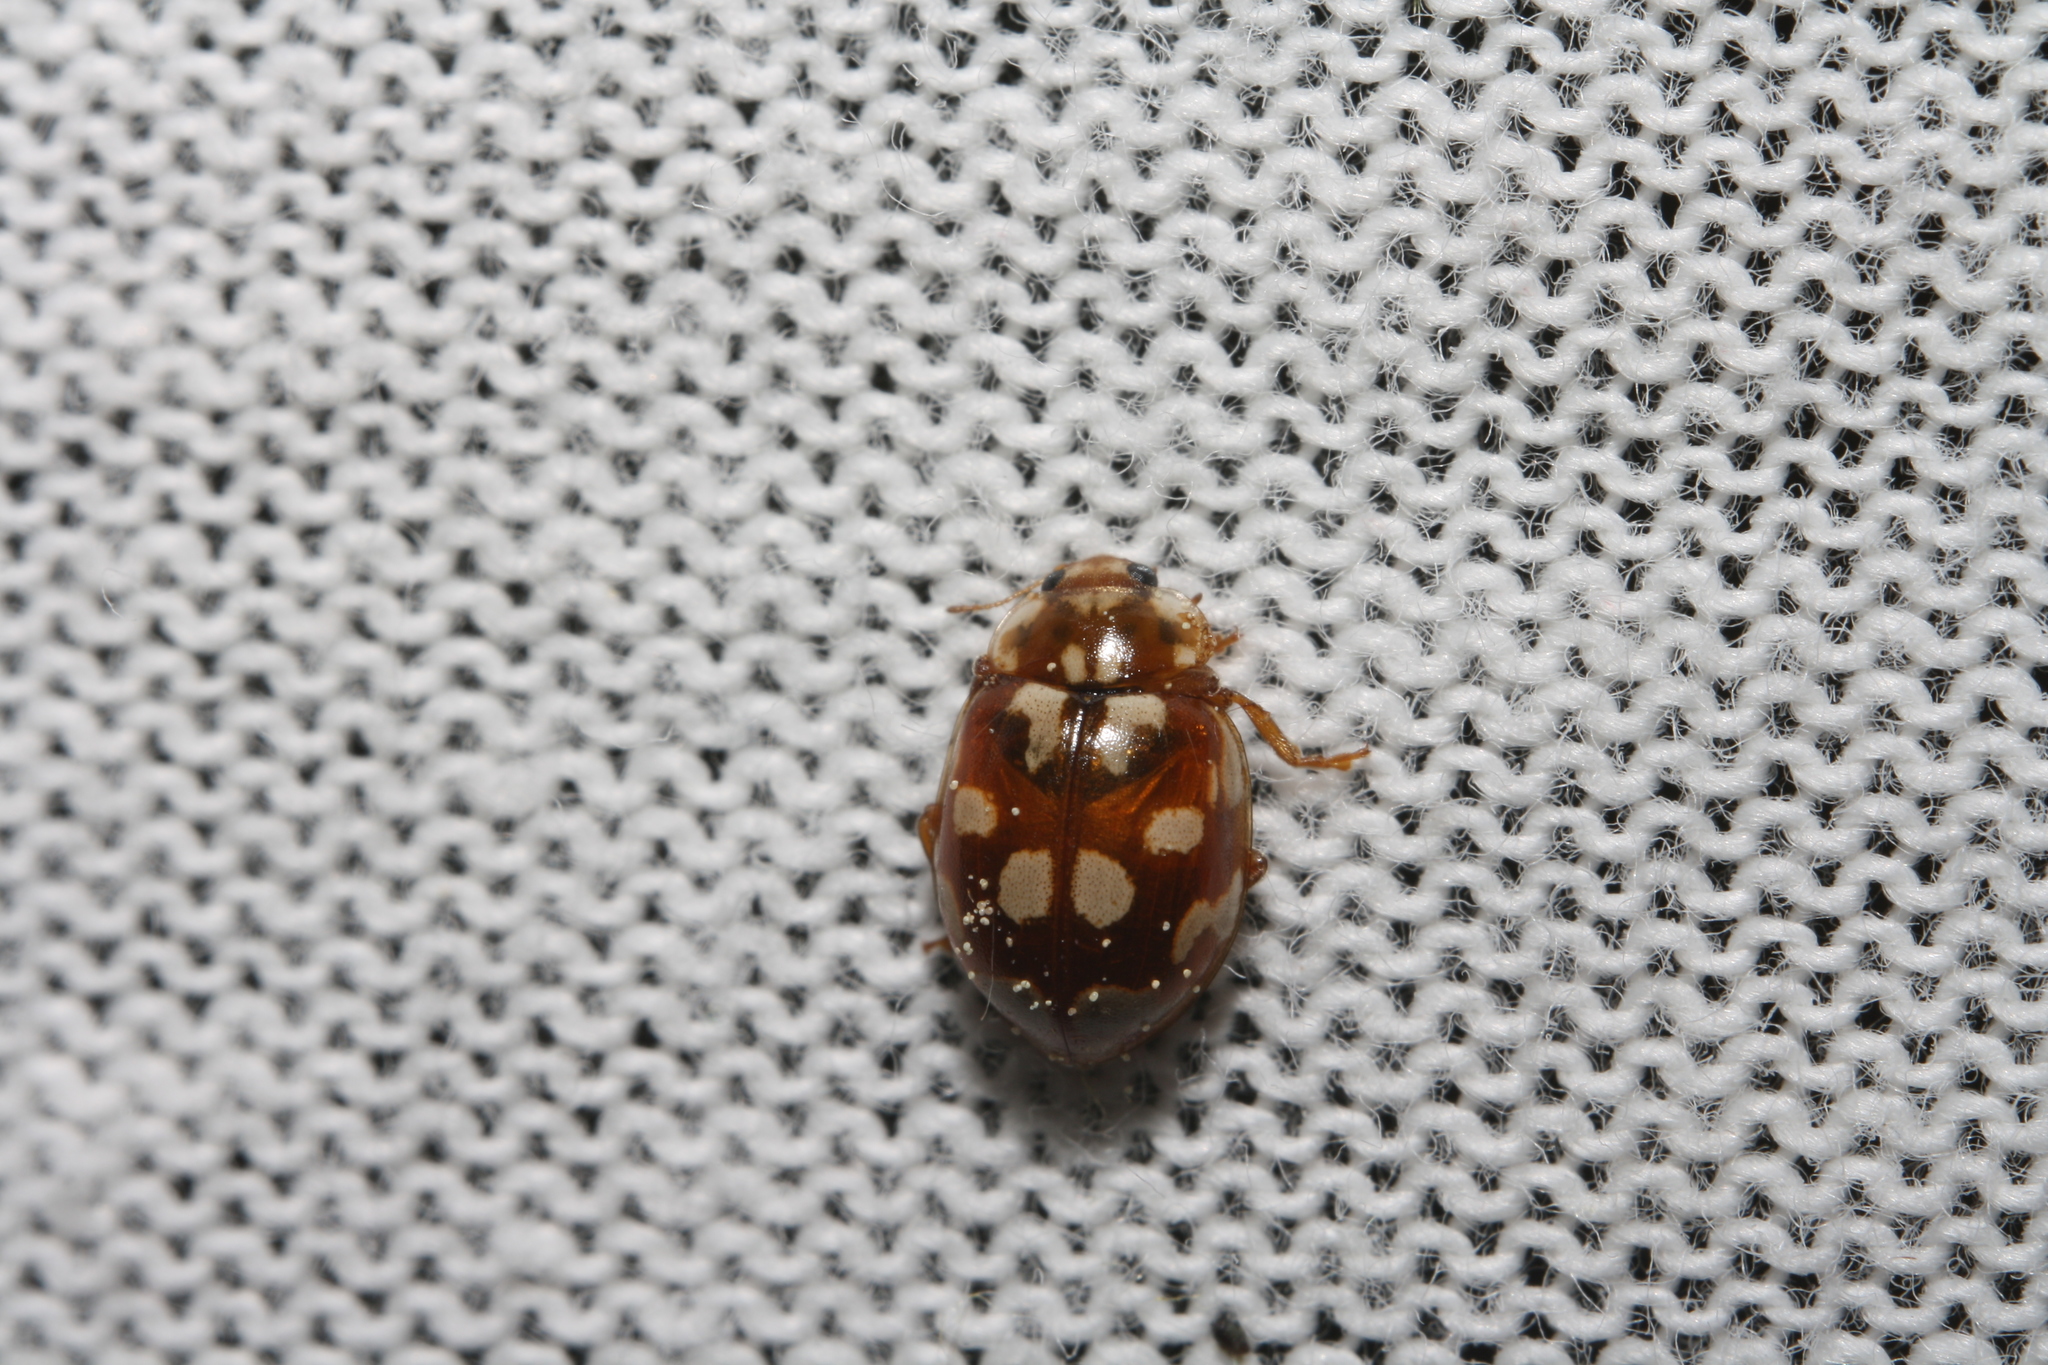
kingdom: Animalia
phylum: Arthropoda
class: Insecta
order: Coleoptera
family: Coccinellidae
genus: Myrrha
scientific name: Myrrha octodecimguttata
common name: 18-spot ladybird
